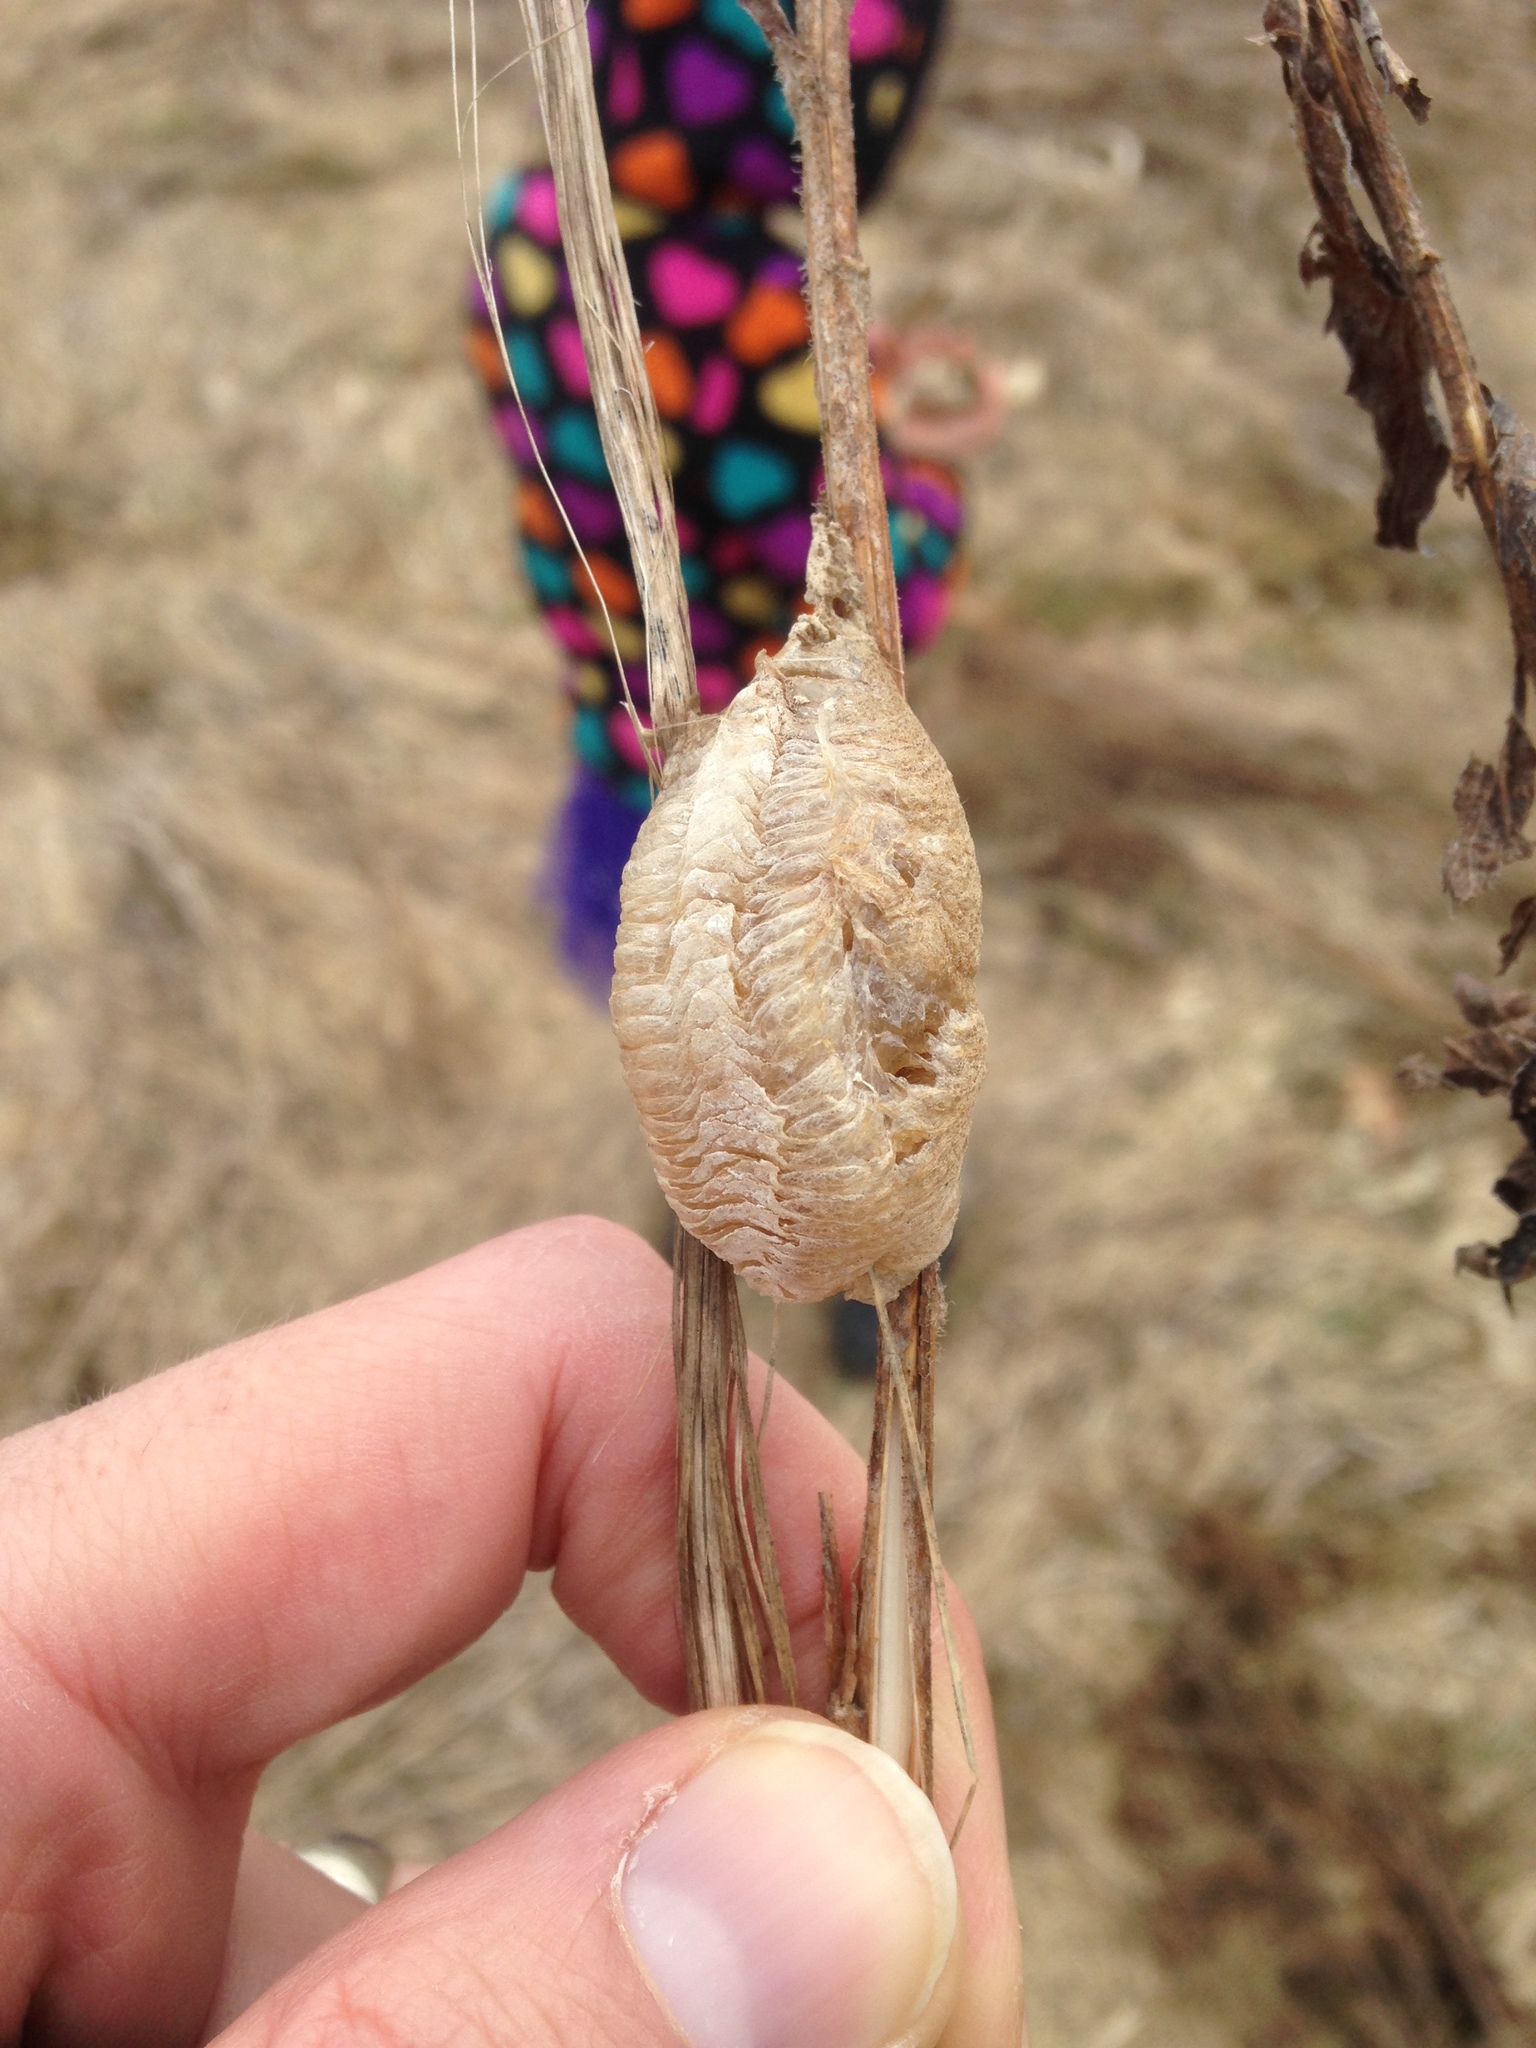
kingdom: Animalia
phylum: Arthropoda
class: Insecta
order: Mantodea
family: Mantidae
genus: Mantis
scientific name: Mantis religiosa
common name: Praying mantis
